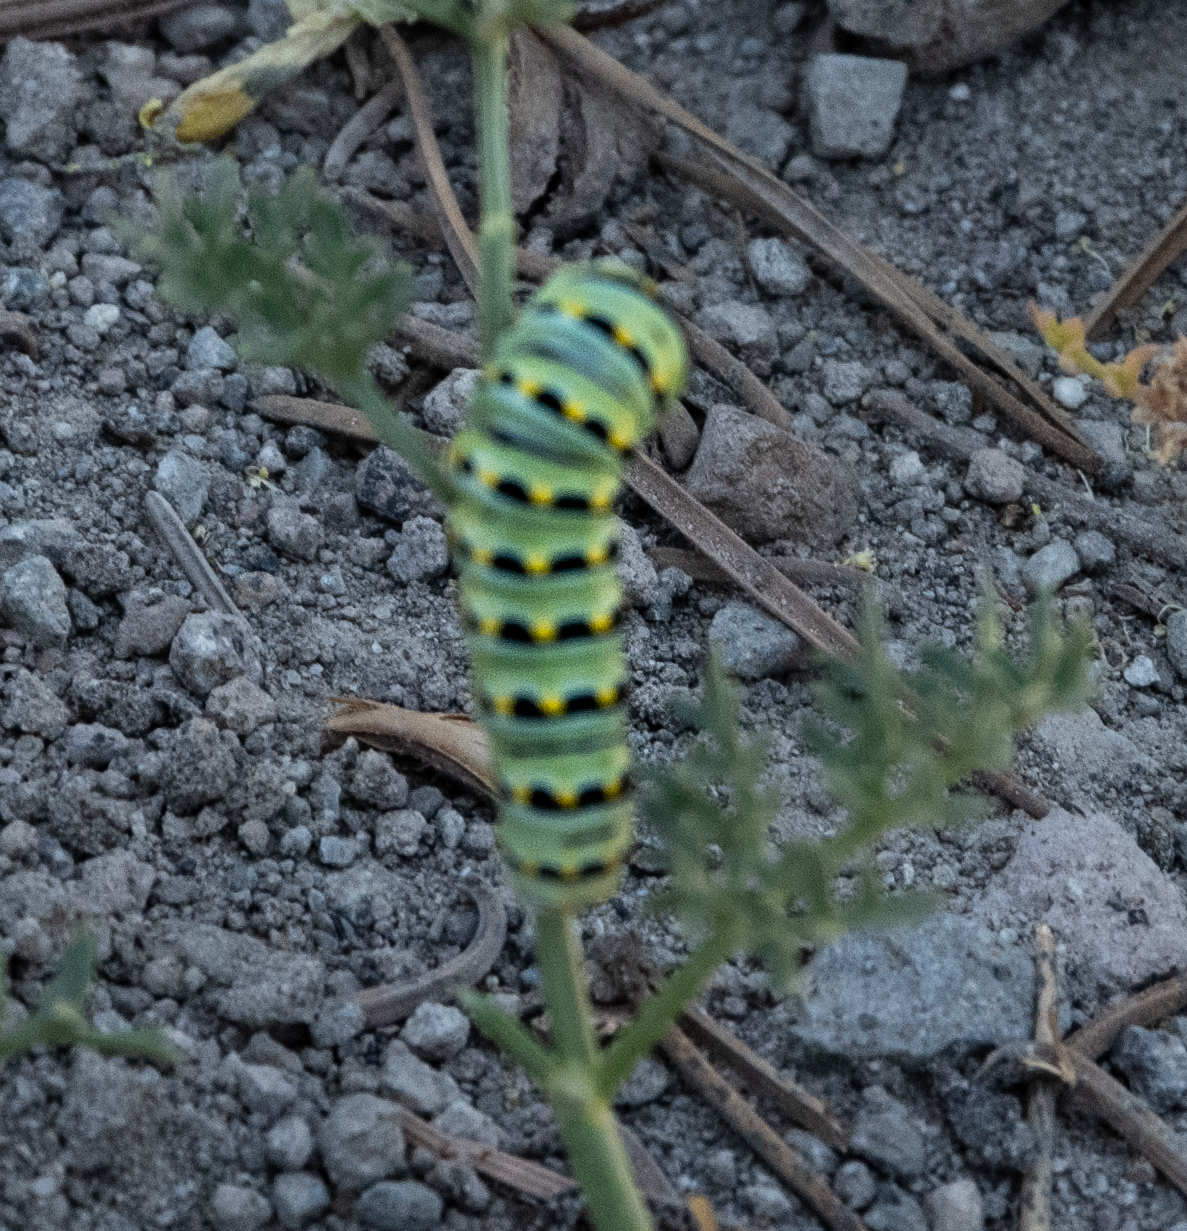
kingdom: Animalia
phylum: Arthropoda
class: Insecta
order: Lepidoptera
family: Papilionidae
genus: Papilio
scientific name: Papilio zelicaon
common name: Anise swallowtail
